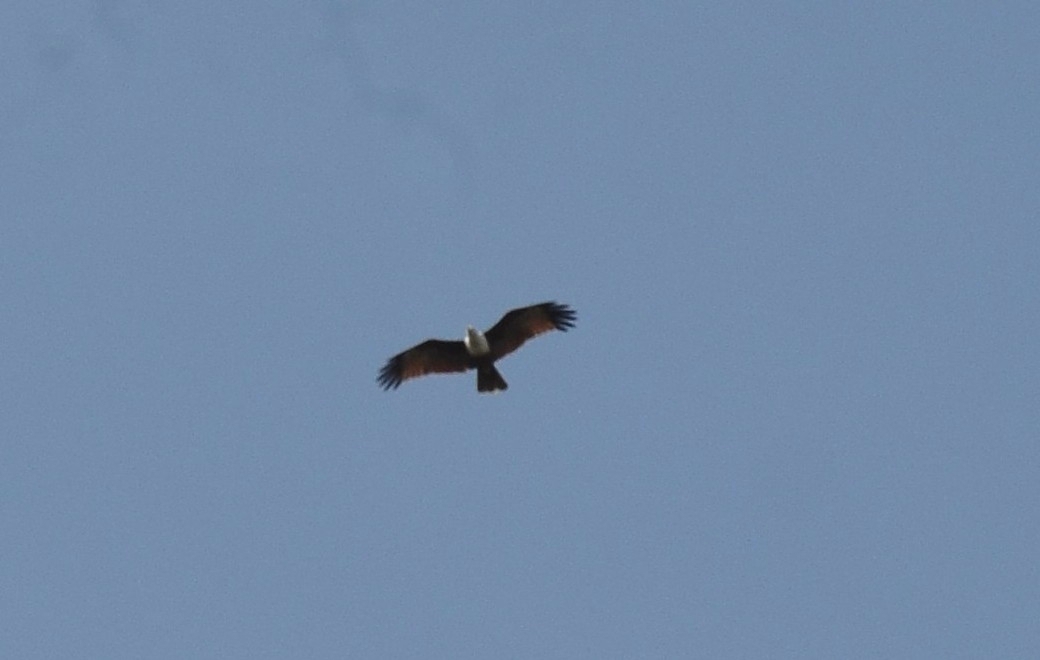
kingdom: Animalia
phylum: Chordata
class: Aves
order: Accipitriformes
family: Accipitridae
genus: Haliastur
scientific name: Haliastur indus
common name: Brahminy kite
